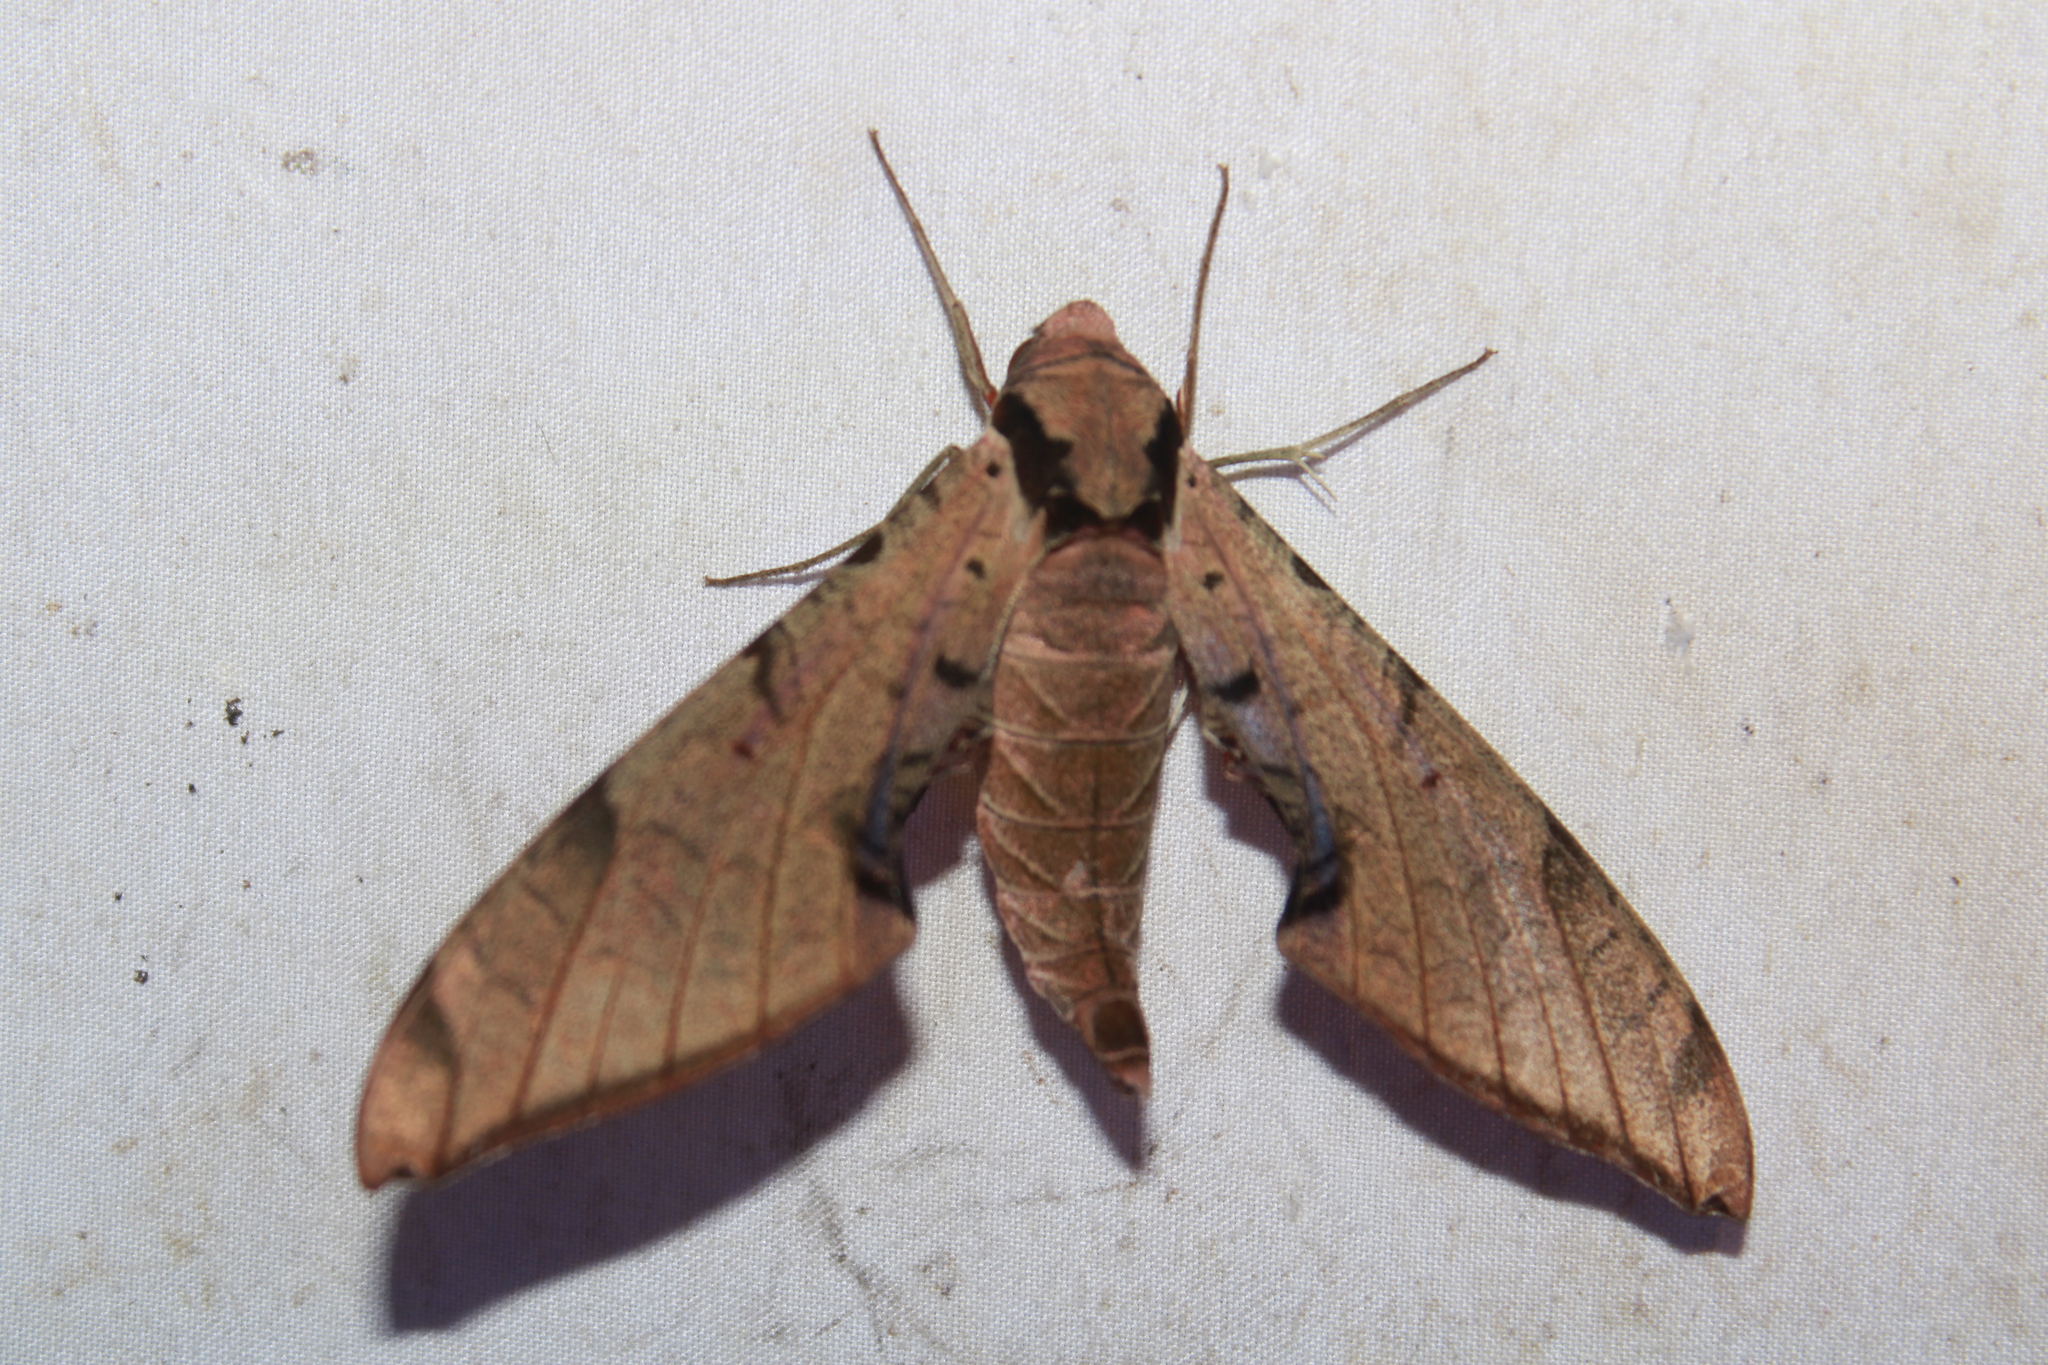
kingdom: Animalia
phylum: Arthropoda
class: Insecta
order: Lepidoptera
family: Sphingidae
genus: Protambulyx
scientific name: Protambulyx strigilis
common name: Streaked sphinx
